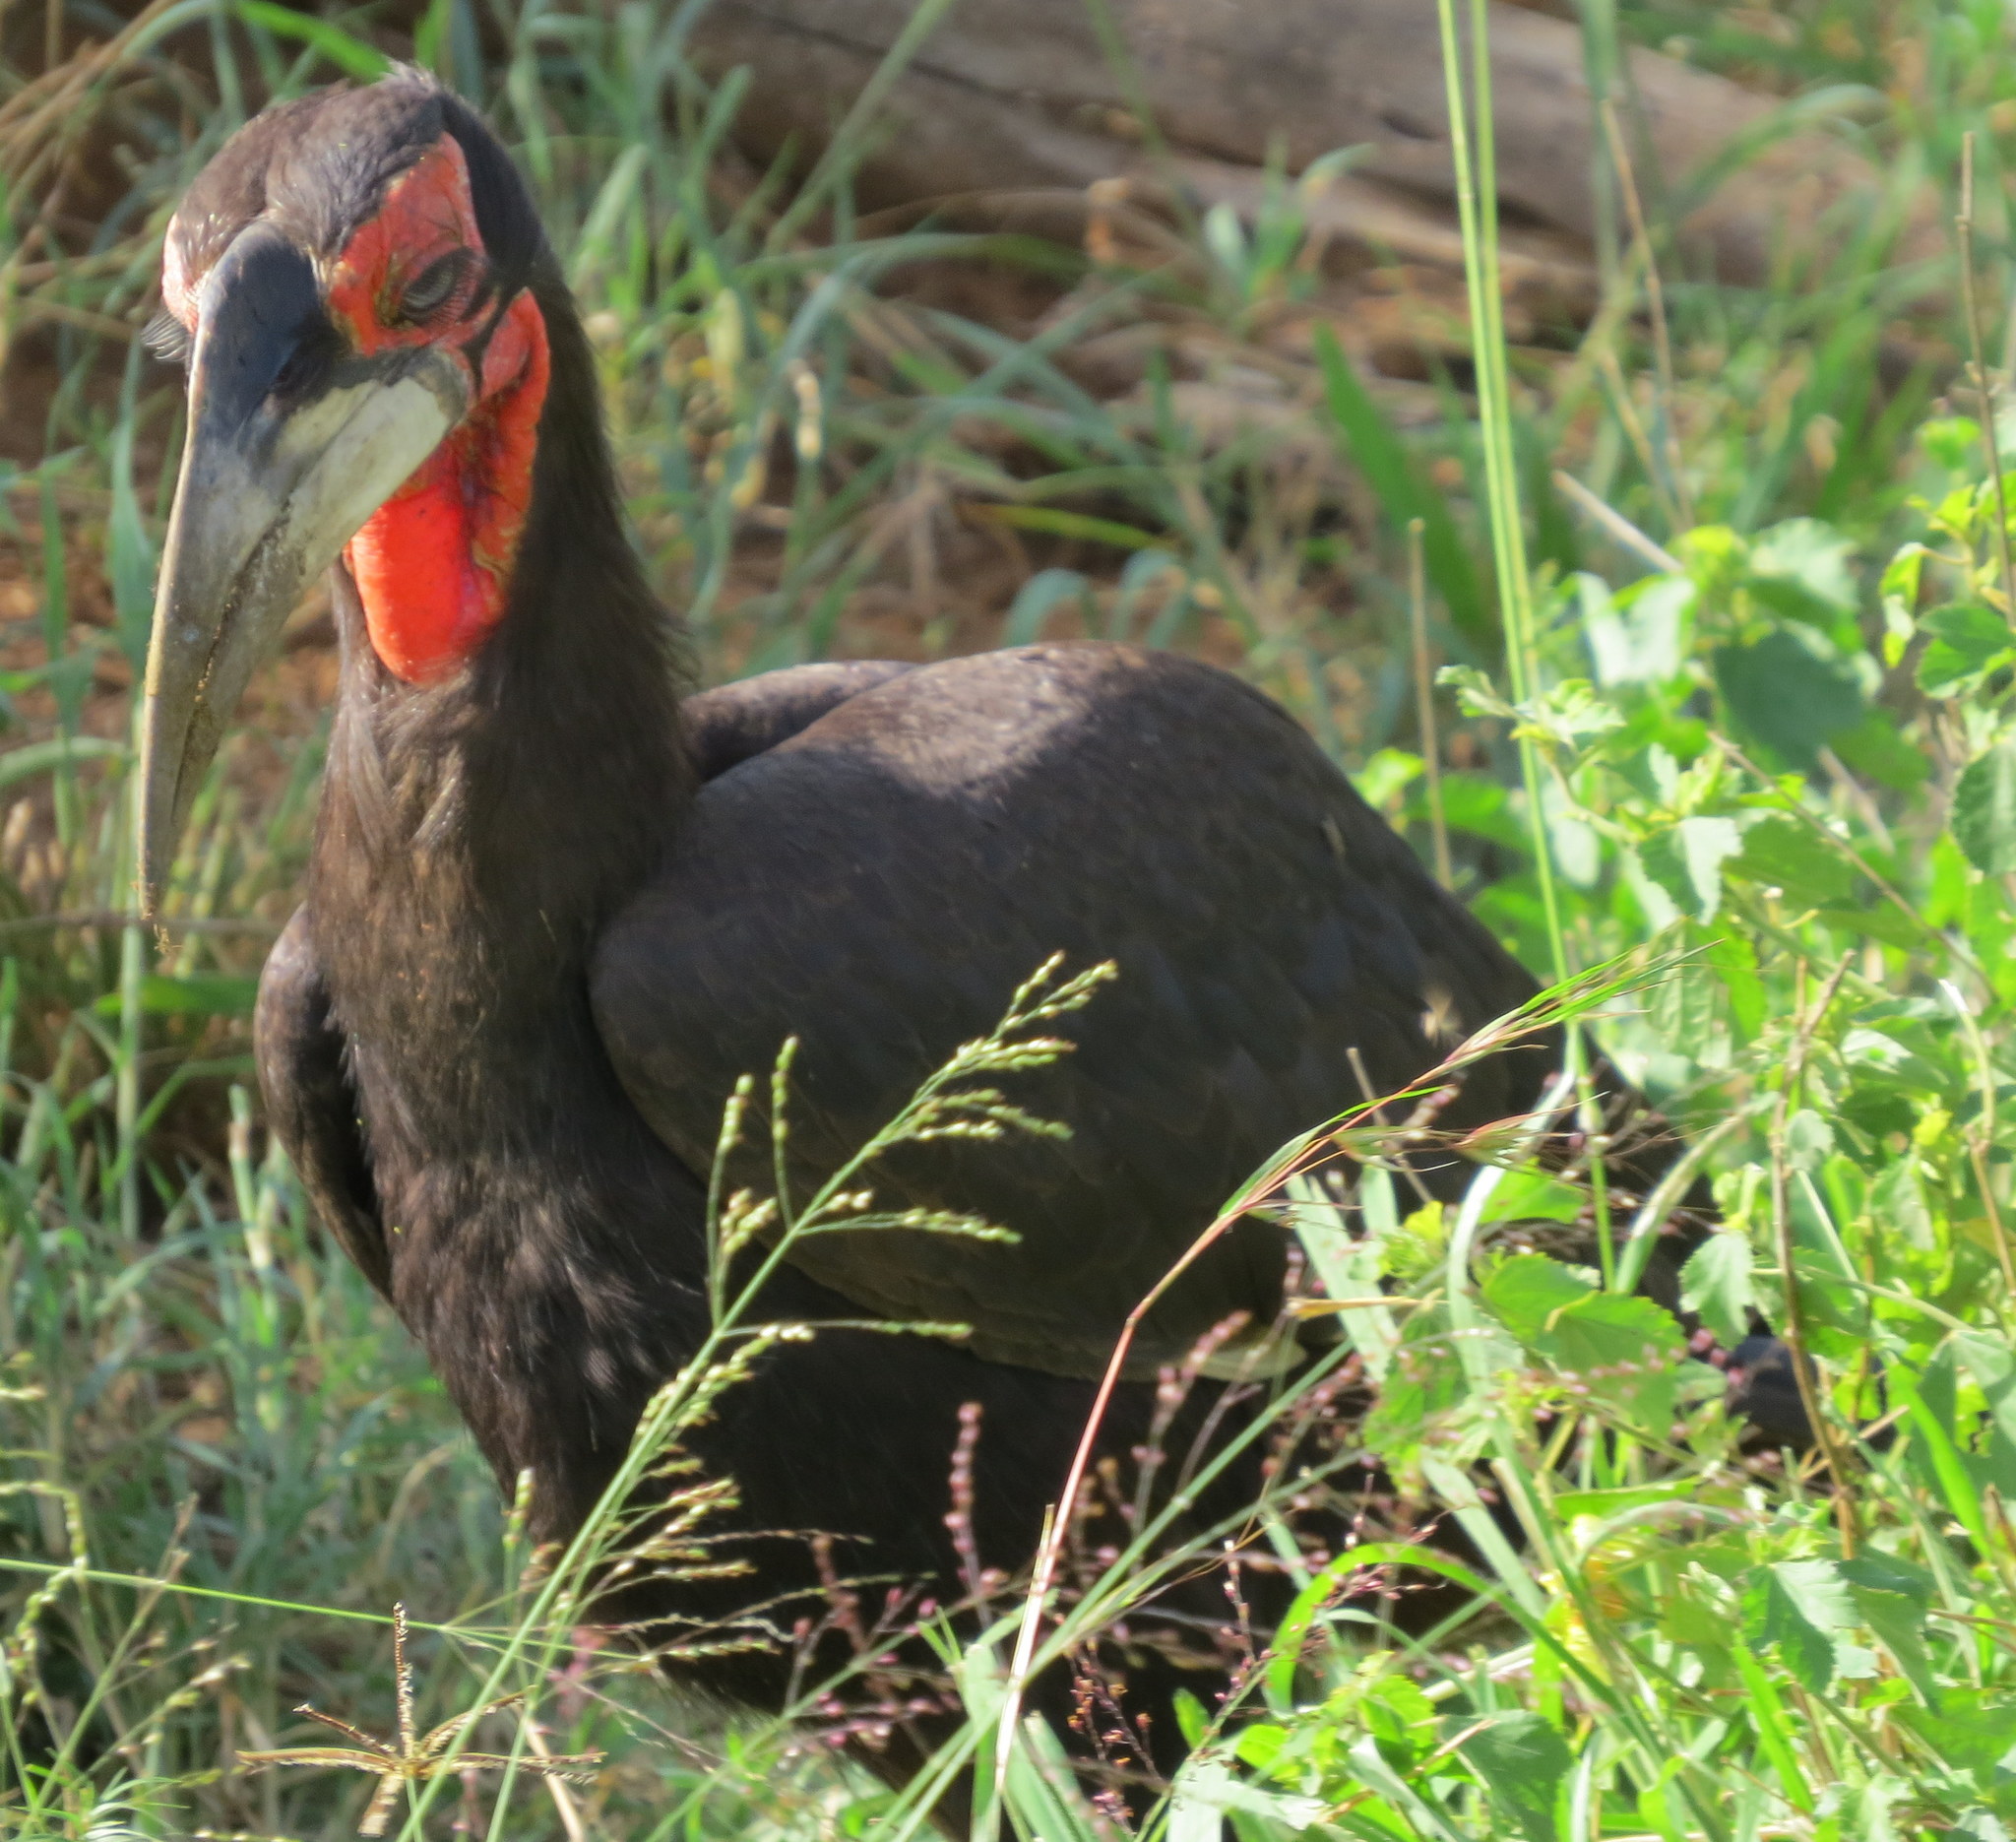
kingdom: Animalia
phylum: Chordata
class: Aves
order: Bucerotiformes
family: Bucorvidae
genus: Bucorvus
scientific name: Bucorvus leadbeateri
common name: Southern ground-hornbill
